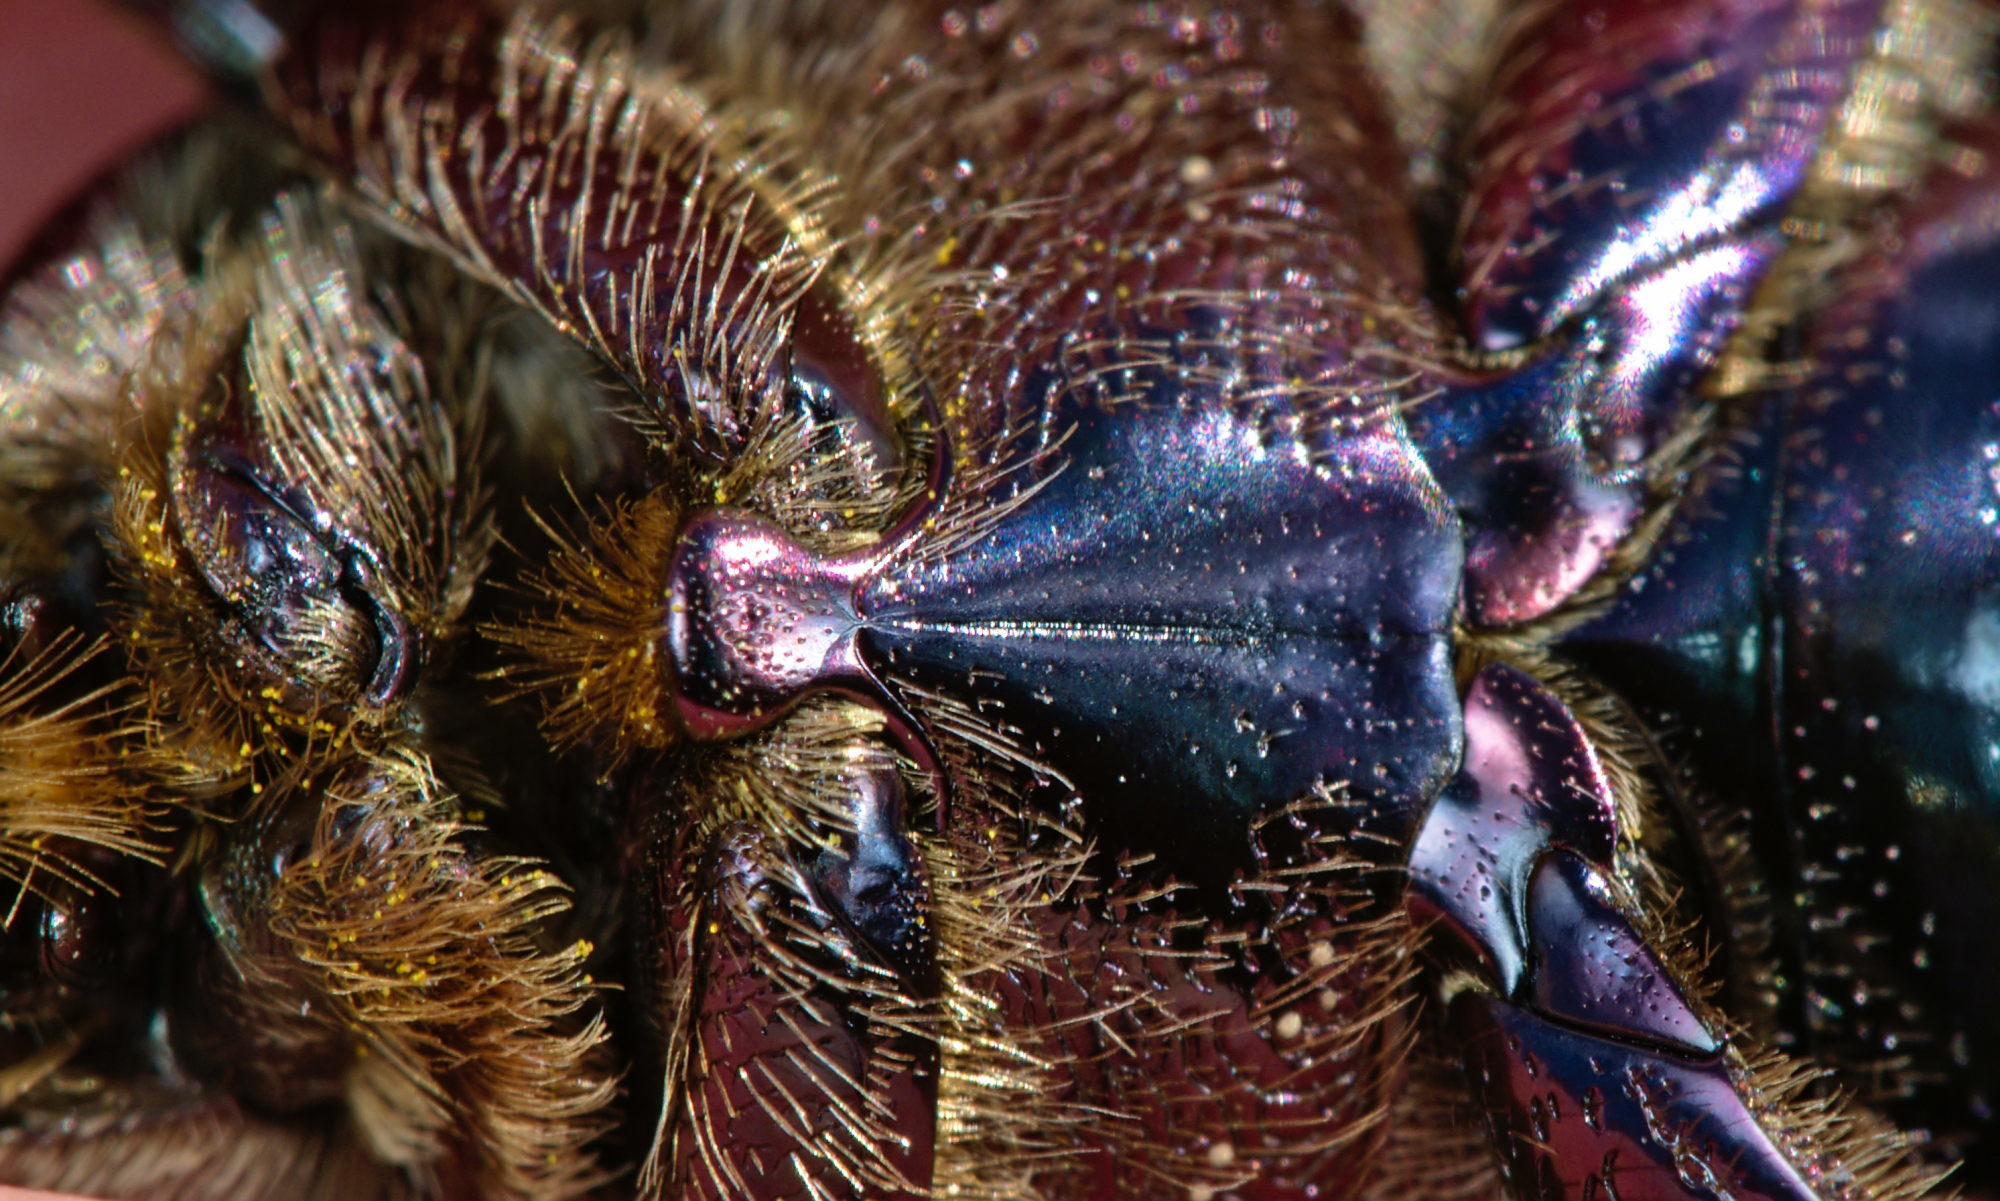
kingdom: Animalia
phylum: Arthropoda
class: Insecta
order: Coleoptera
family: Scarabaeidae
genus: Protaetia
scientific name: Protaetia cuprea
